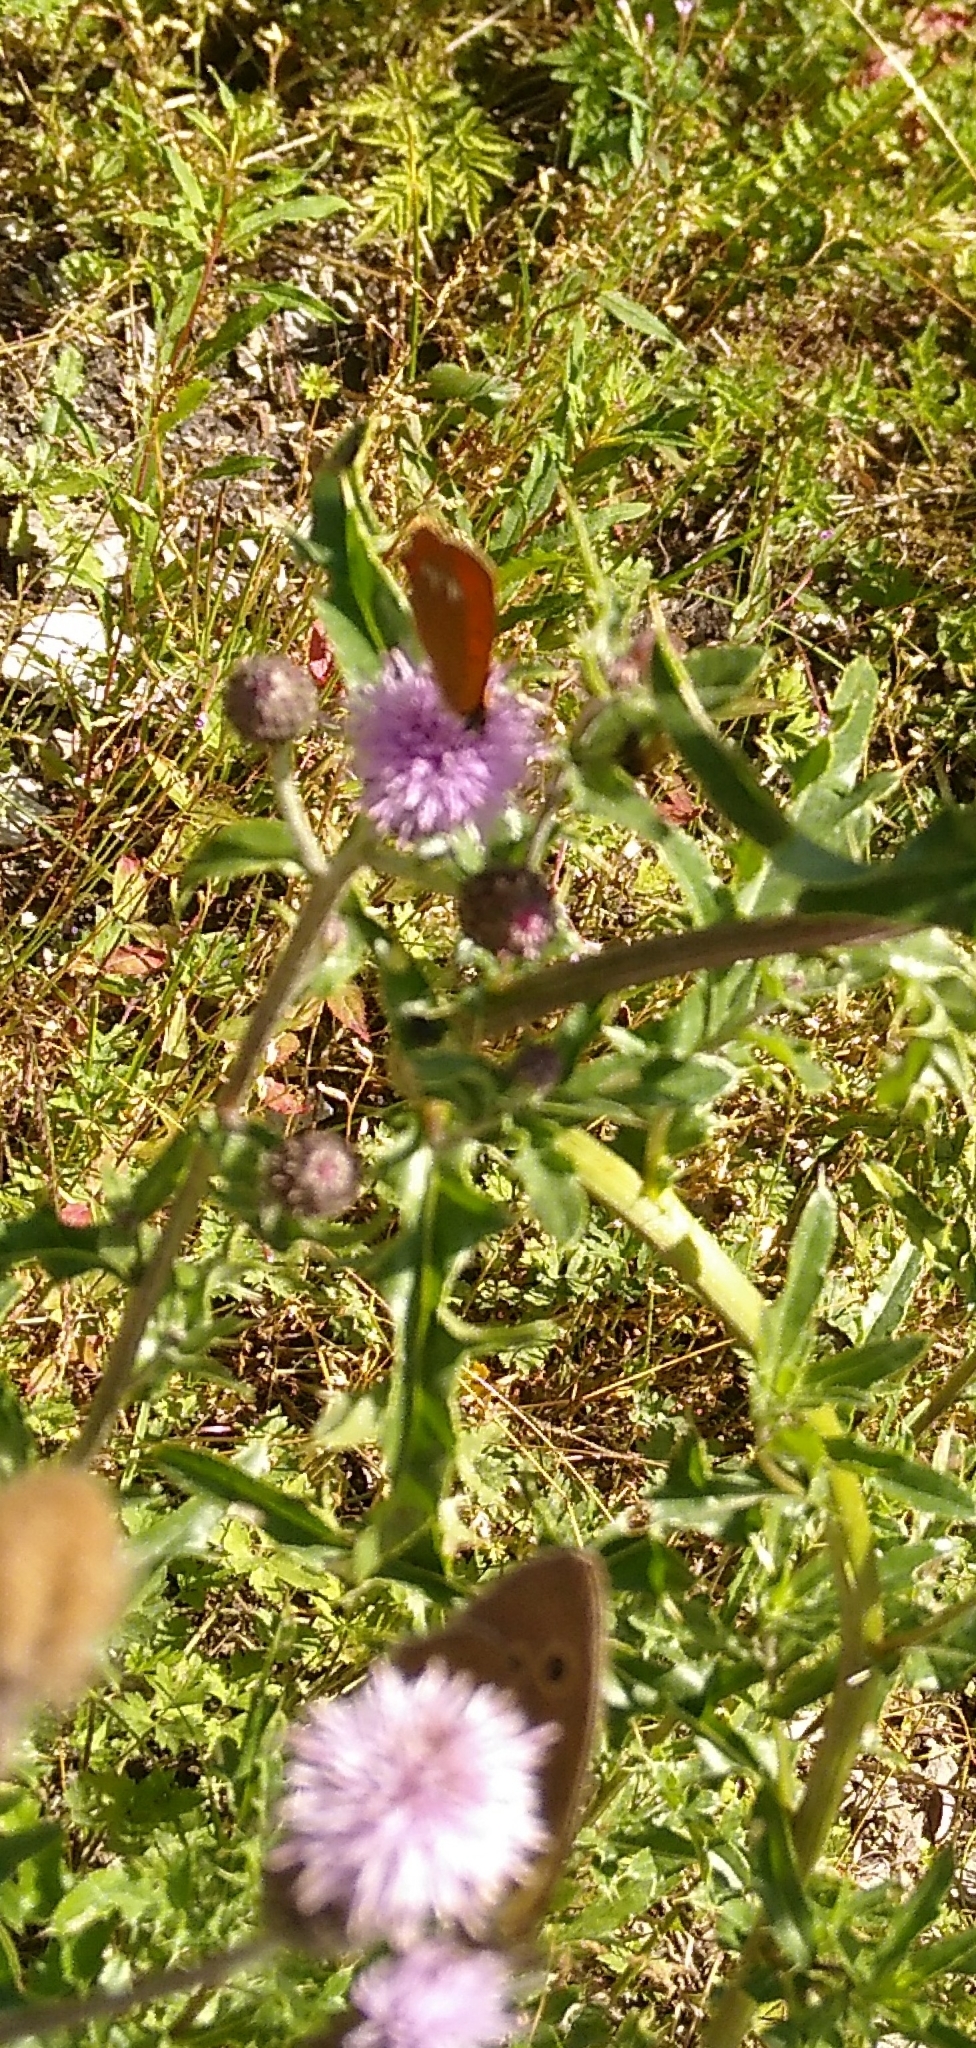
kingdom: Animalia
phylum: Arthropoda
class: Insecta
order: Lepidoptera
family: Lycaenidae
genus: Lycaena
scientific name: Lycaena virgaureae
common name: Scarce copper
